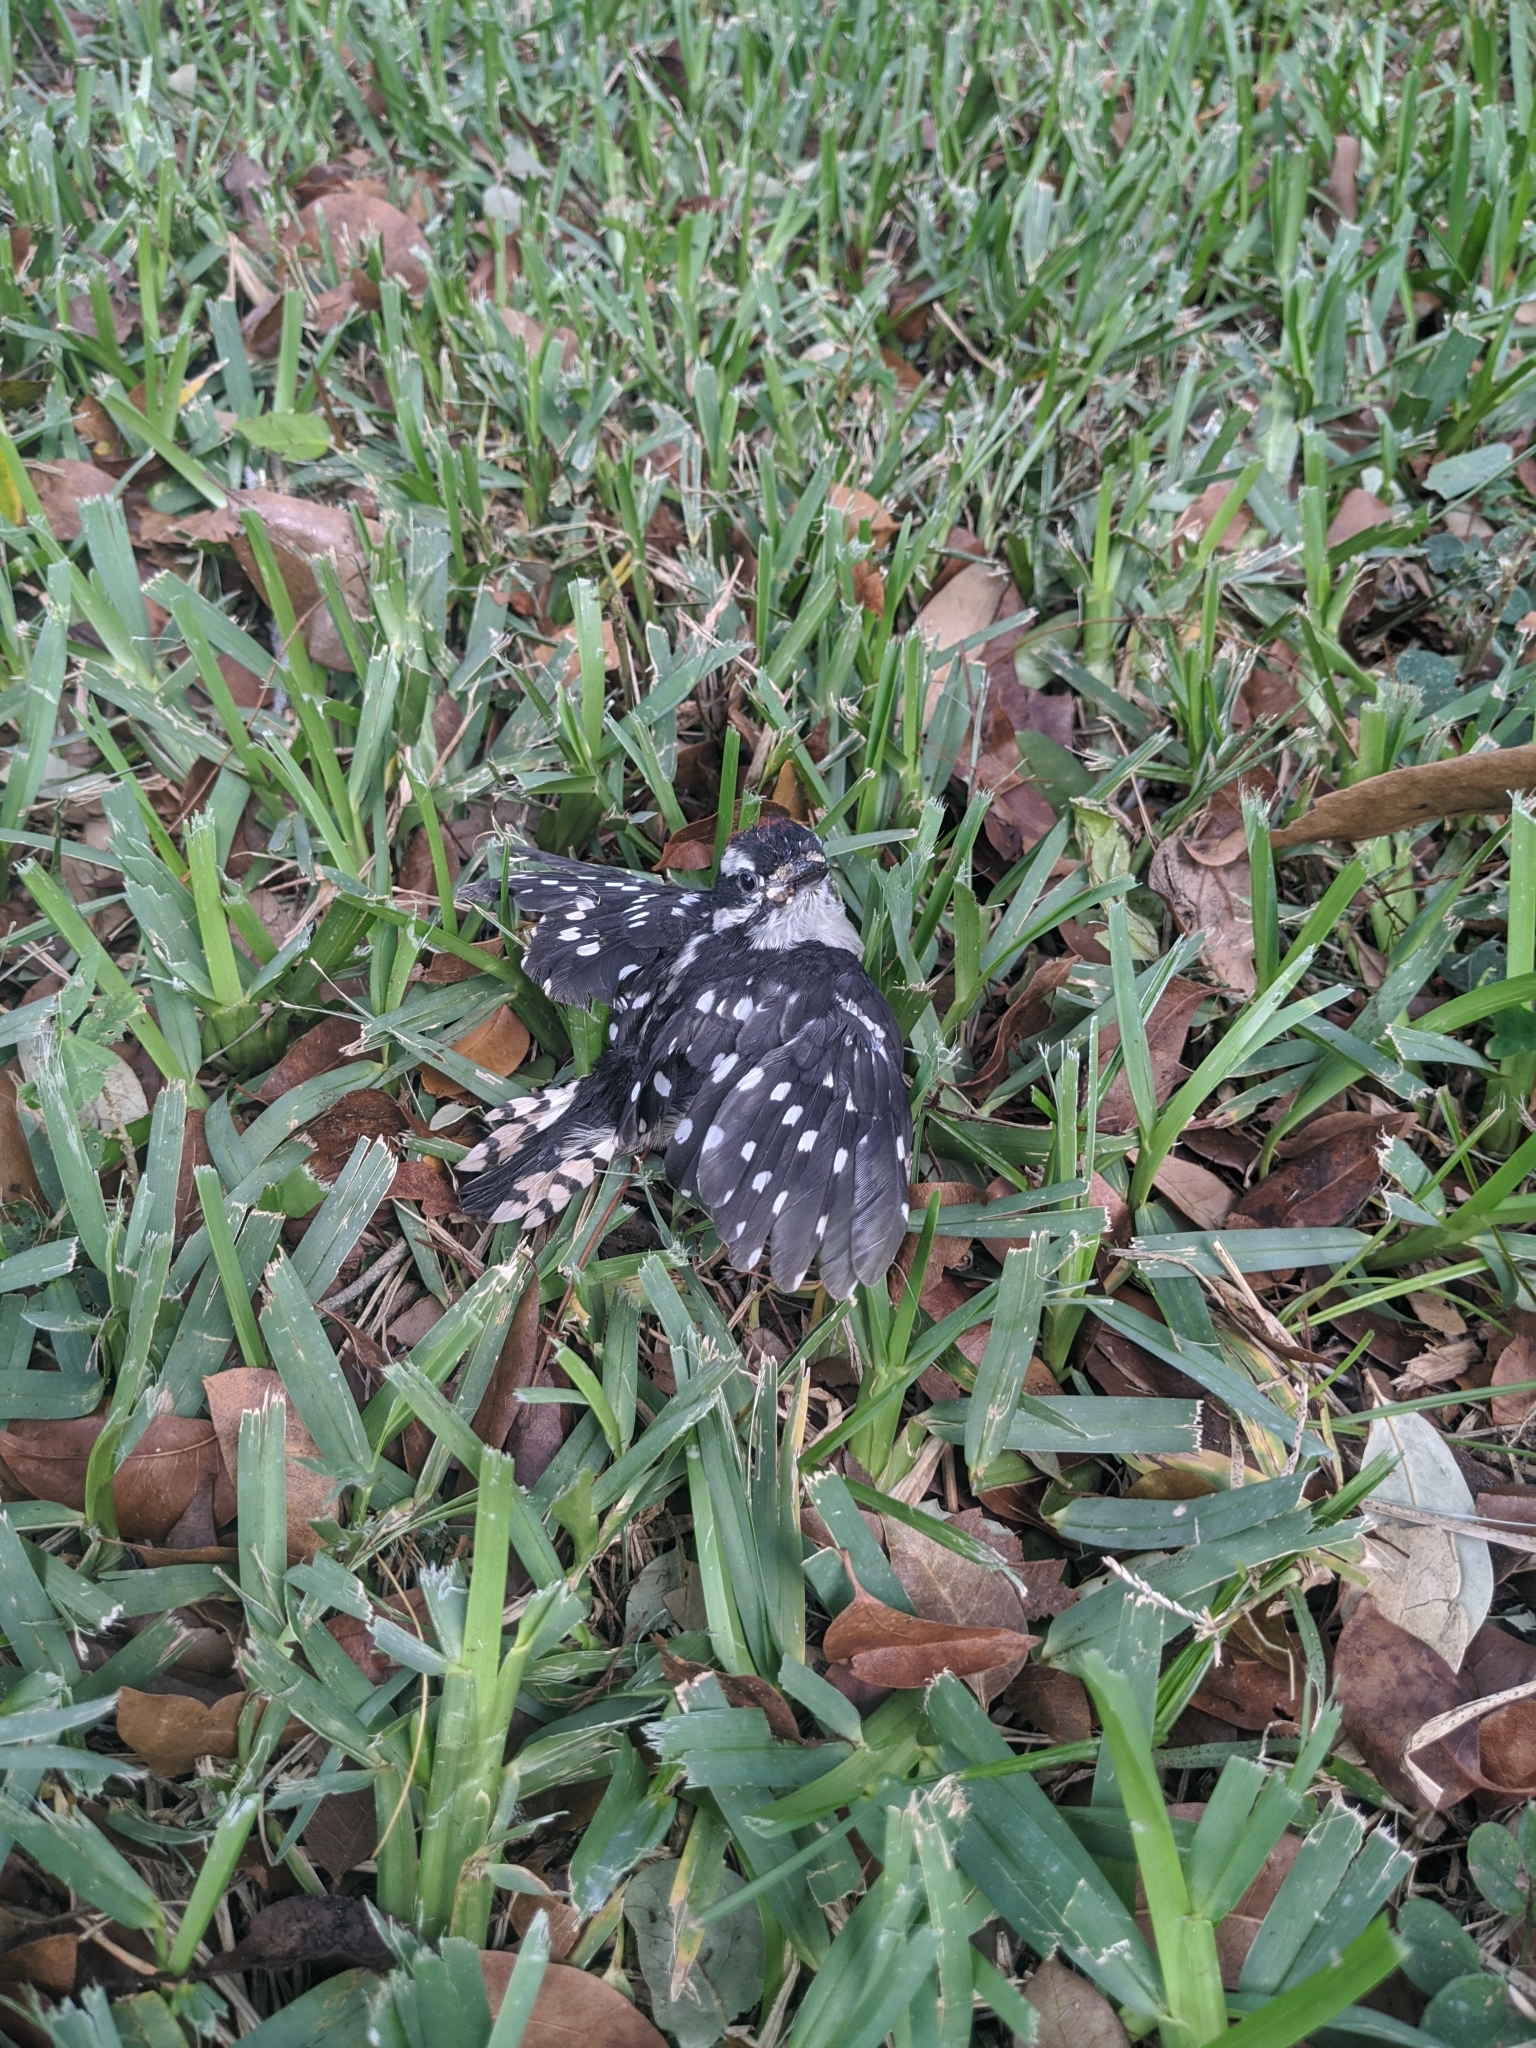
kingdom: Animalia
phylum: Chordata
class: Aves
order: Piciformes
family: Picidae
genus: Dryobates
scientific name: Dryobates pubescens
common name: Downy woodpecker
